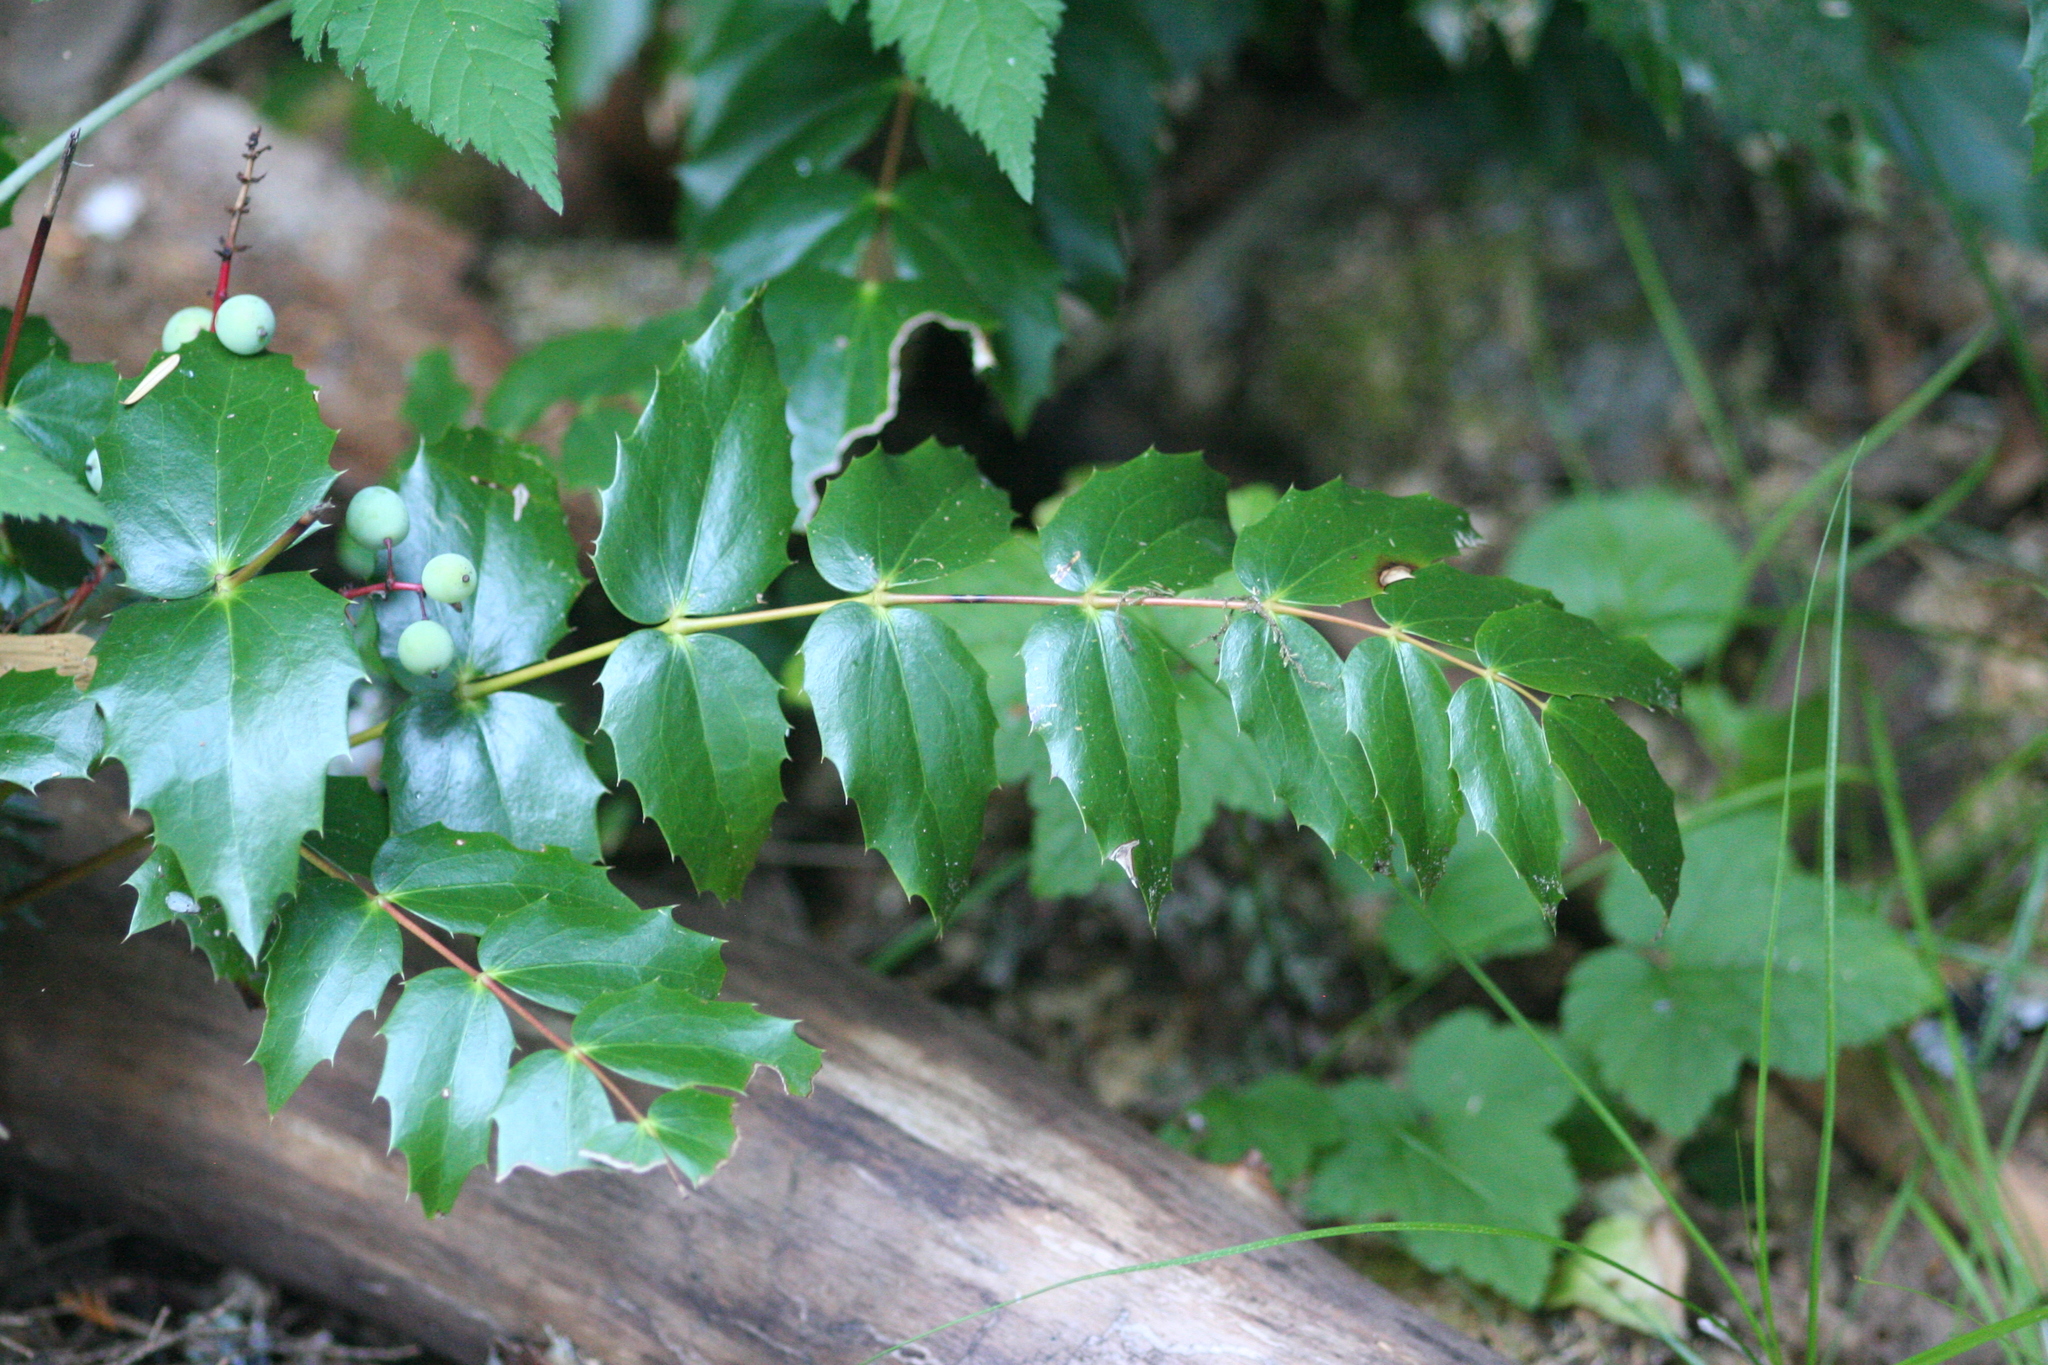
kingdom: Plantae
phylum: Tracheophyta
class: Magnoliopsida
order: Ranunculales
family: Berberidaceae
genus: Mahonia
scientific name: Mahonia nervosa
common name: Cascade oregon-grape
